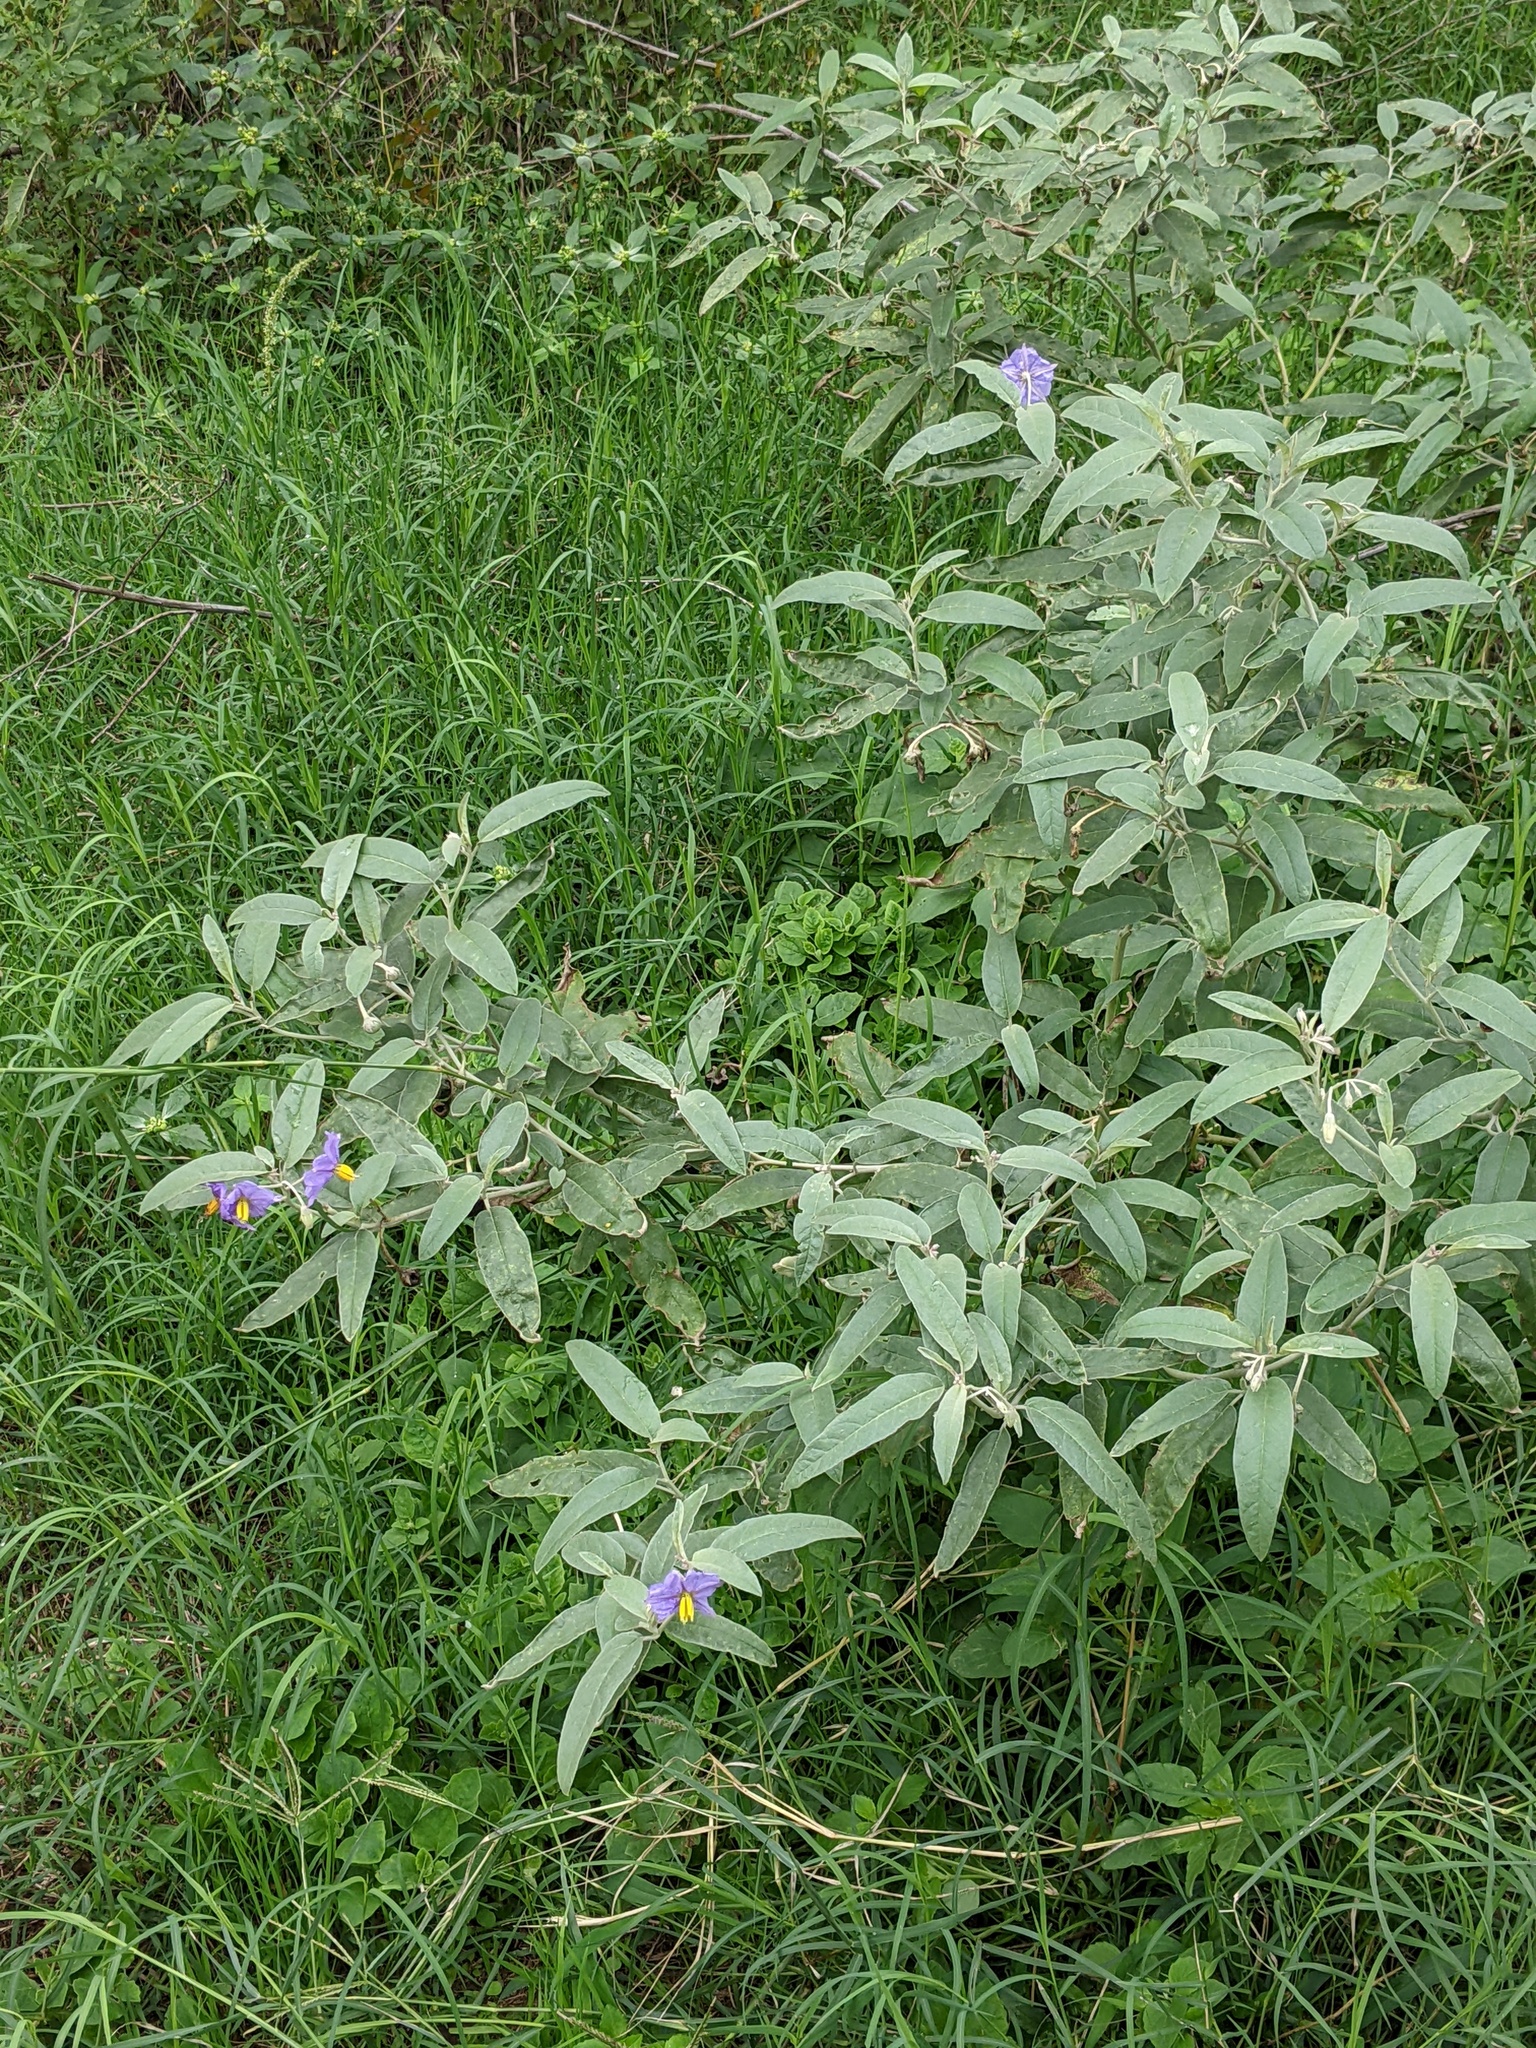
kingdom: Plantae
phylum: Tracheophyta
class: Magnoliopsida
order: Solanales
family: Solanaceae
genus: Solanum
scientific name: Solanum elaeagnifolium
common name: Silverleaf nightshade
